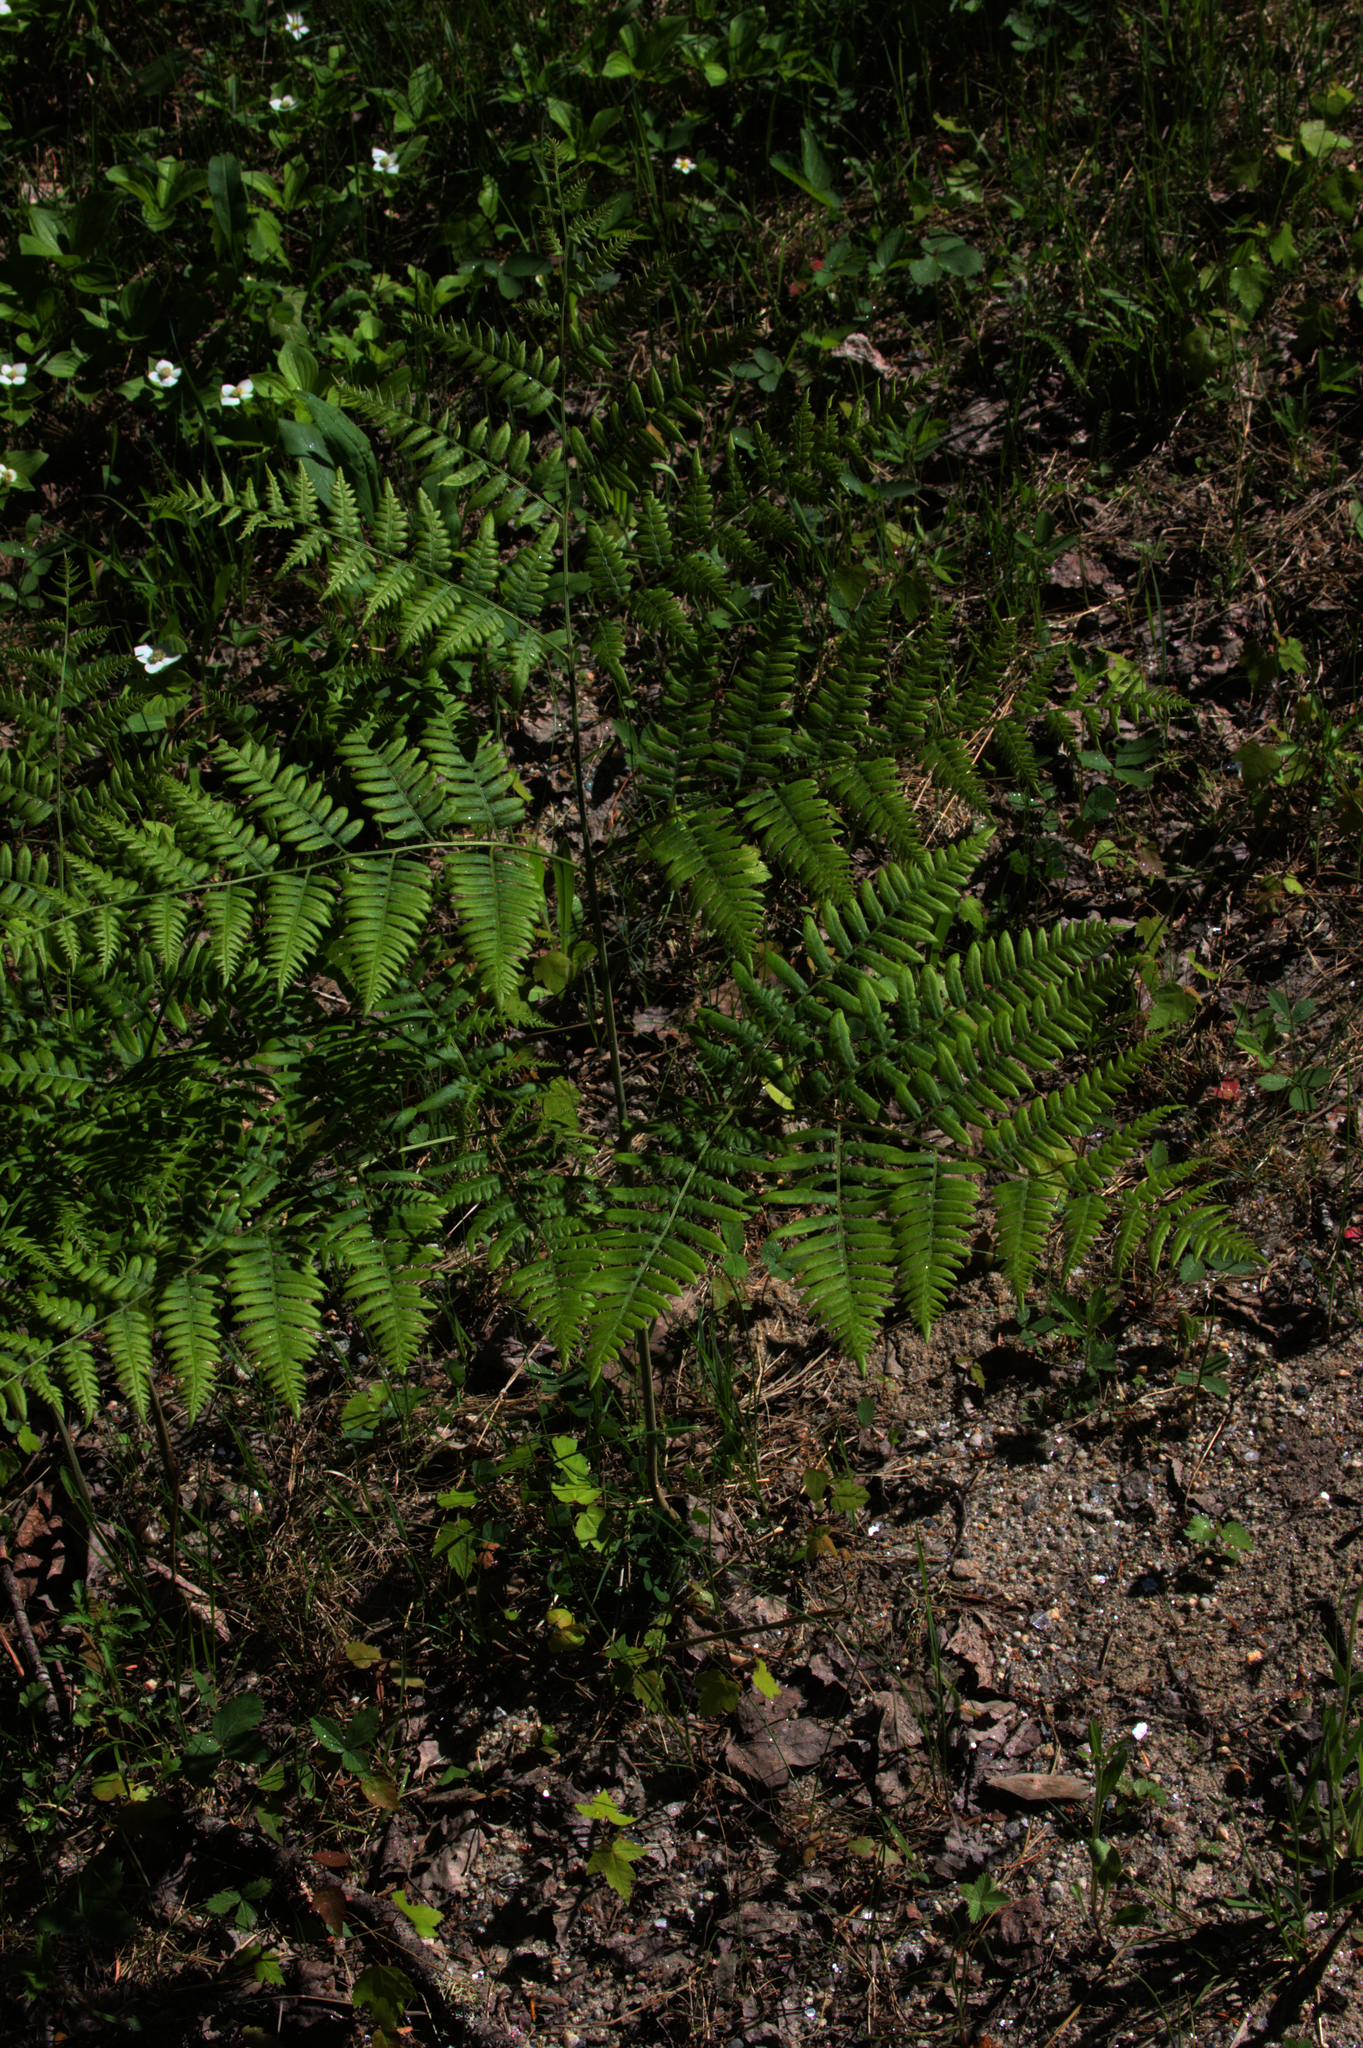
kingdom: Plantae
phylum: Tracheophyta
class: Polypodiopsida
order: Polypodiales
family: Dennstaedtiaceae
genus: Pteridium
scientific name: Pteridium aquilinum
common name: Bracken
